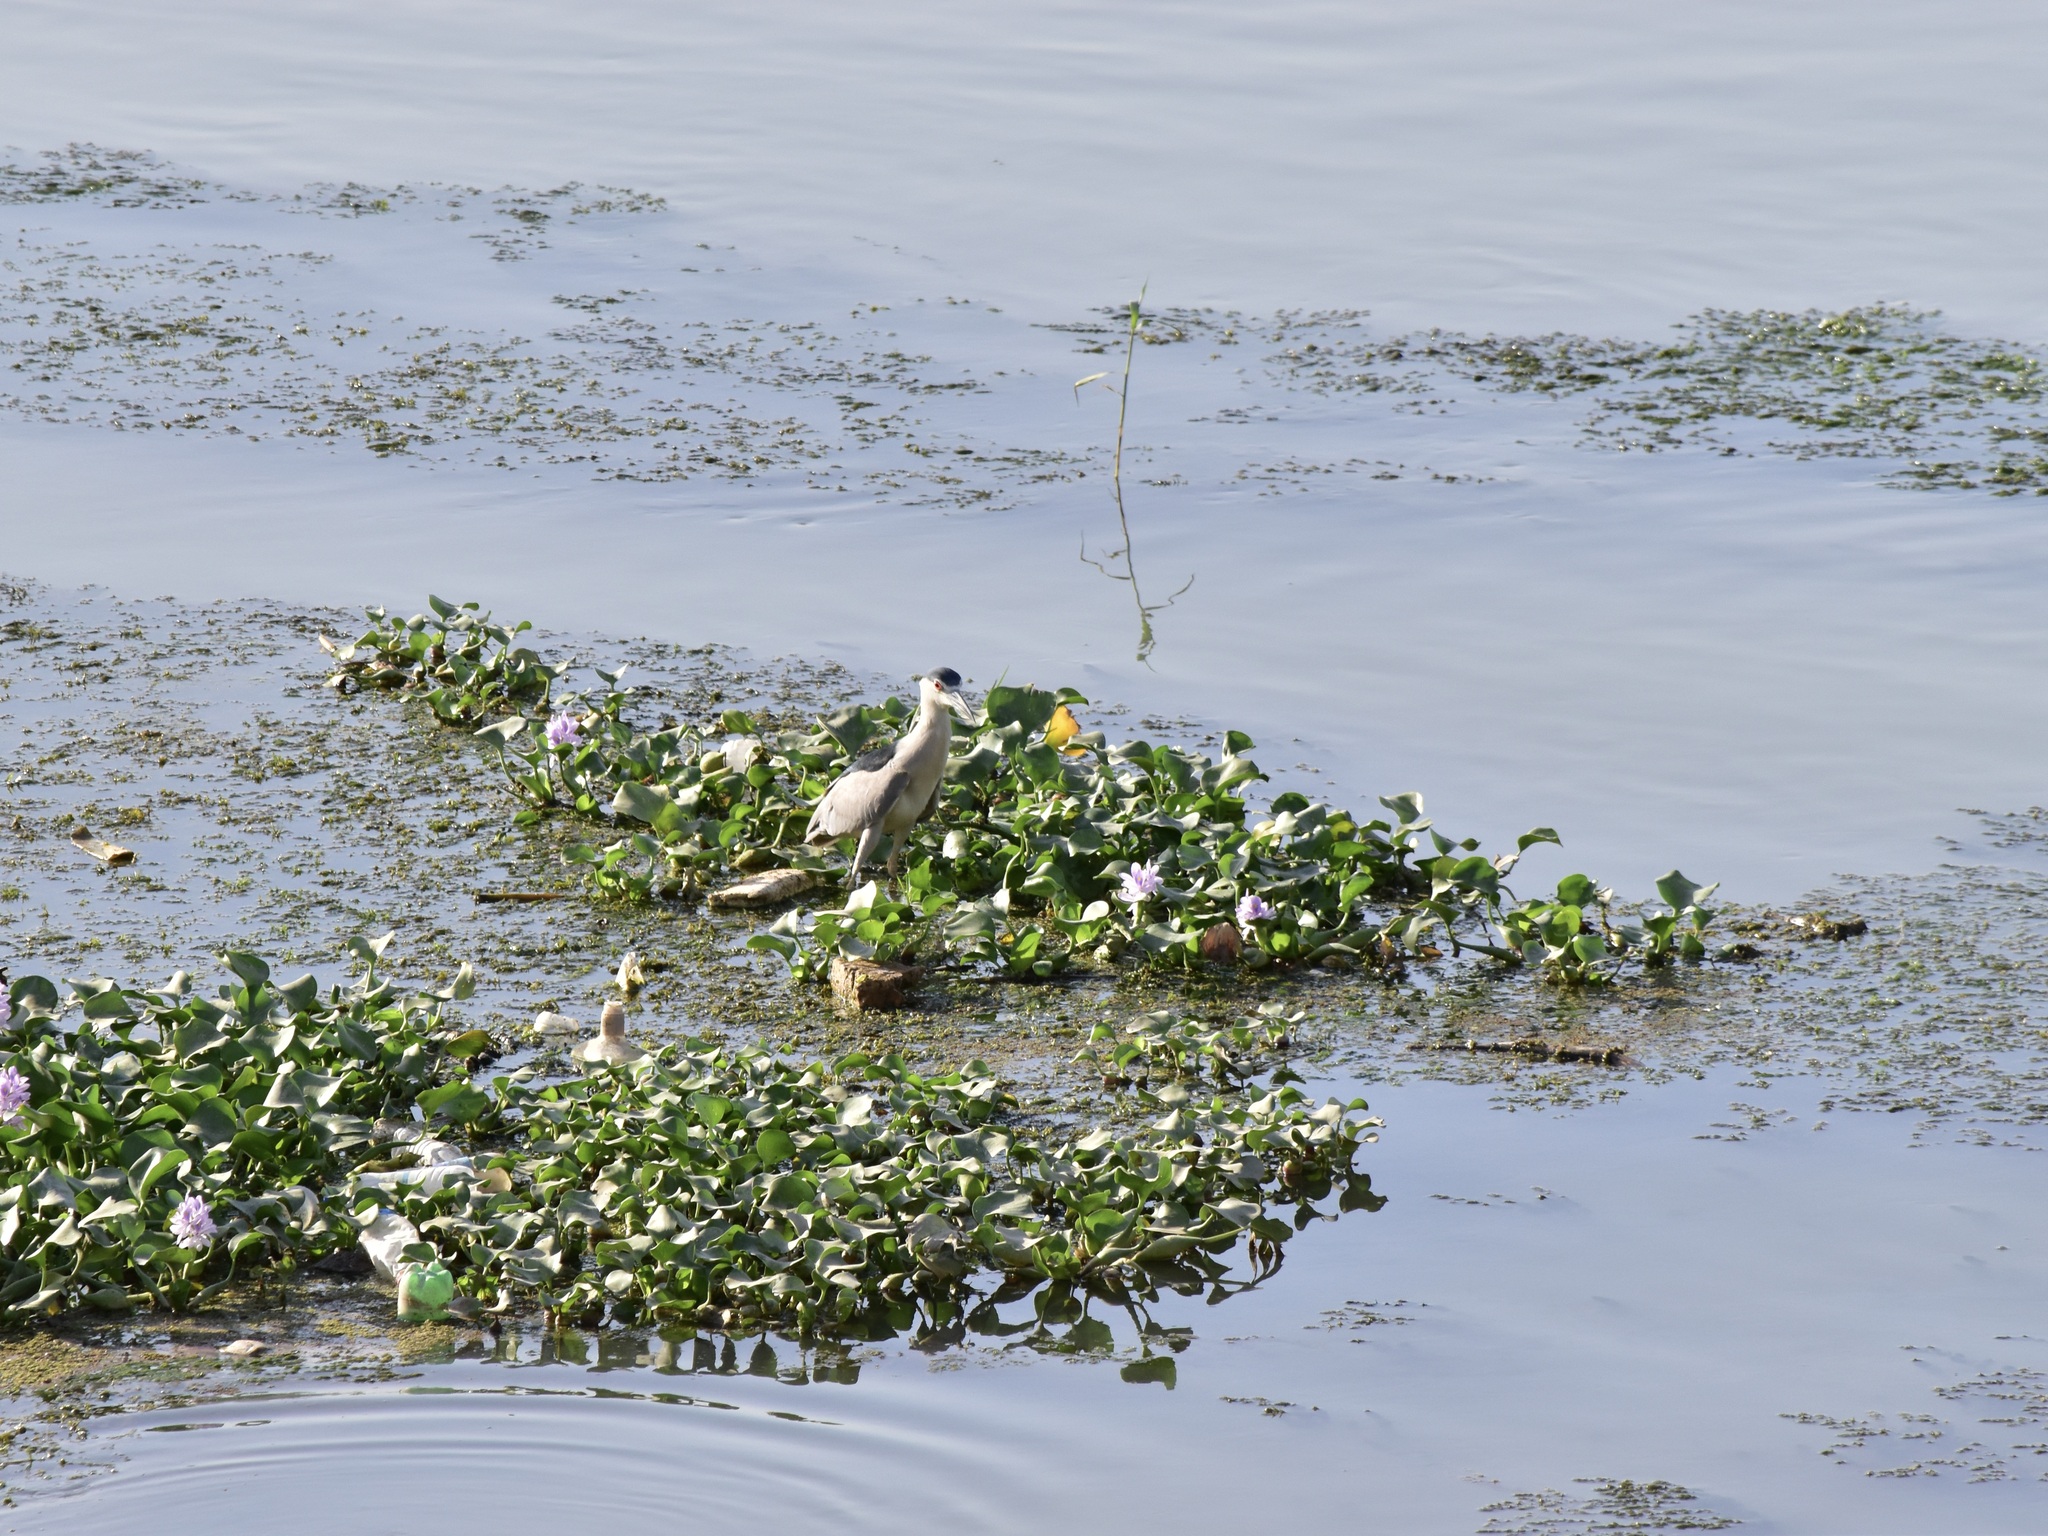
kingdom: Animalia
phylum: Chordata
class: Aves
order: Pelecaniformes
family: Ardeidae
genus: Nycticorax
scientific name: Nycticorax nycticorax
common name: Black-crowned night heron
